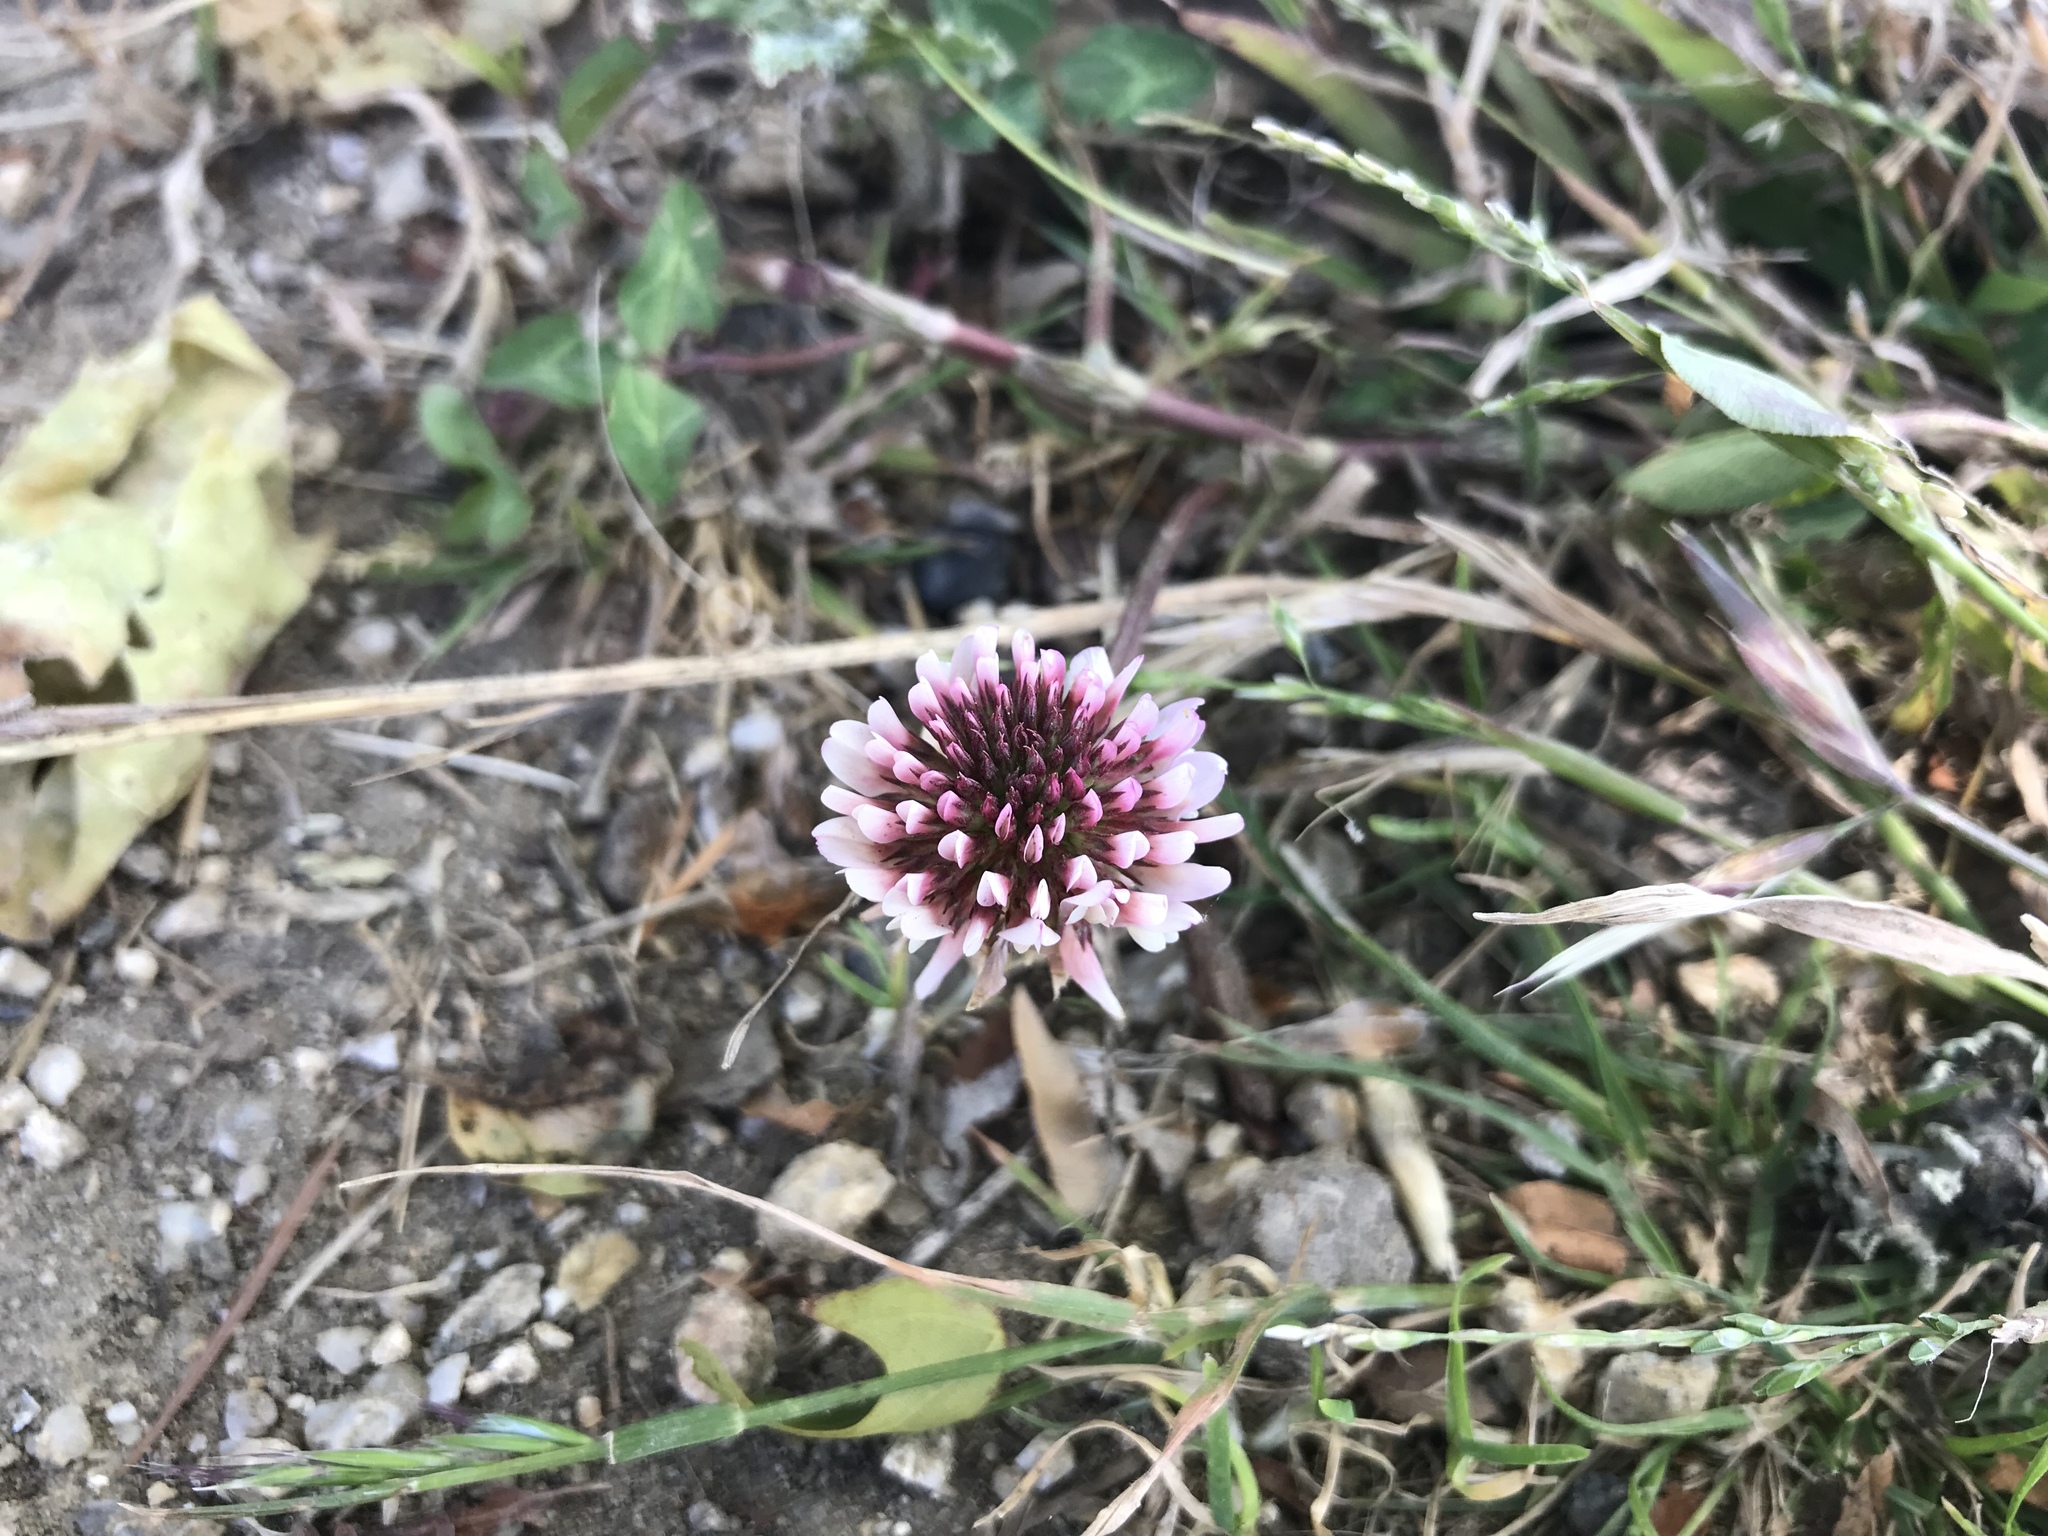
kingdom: Plantae
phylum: Tracheophyta
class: Magnoliopsida
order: Fabales
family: Fabaceae
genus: Trifolium
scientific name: Trifolium repens
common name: White clover
